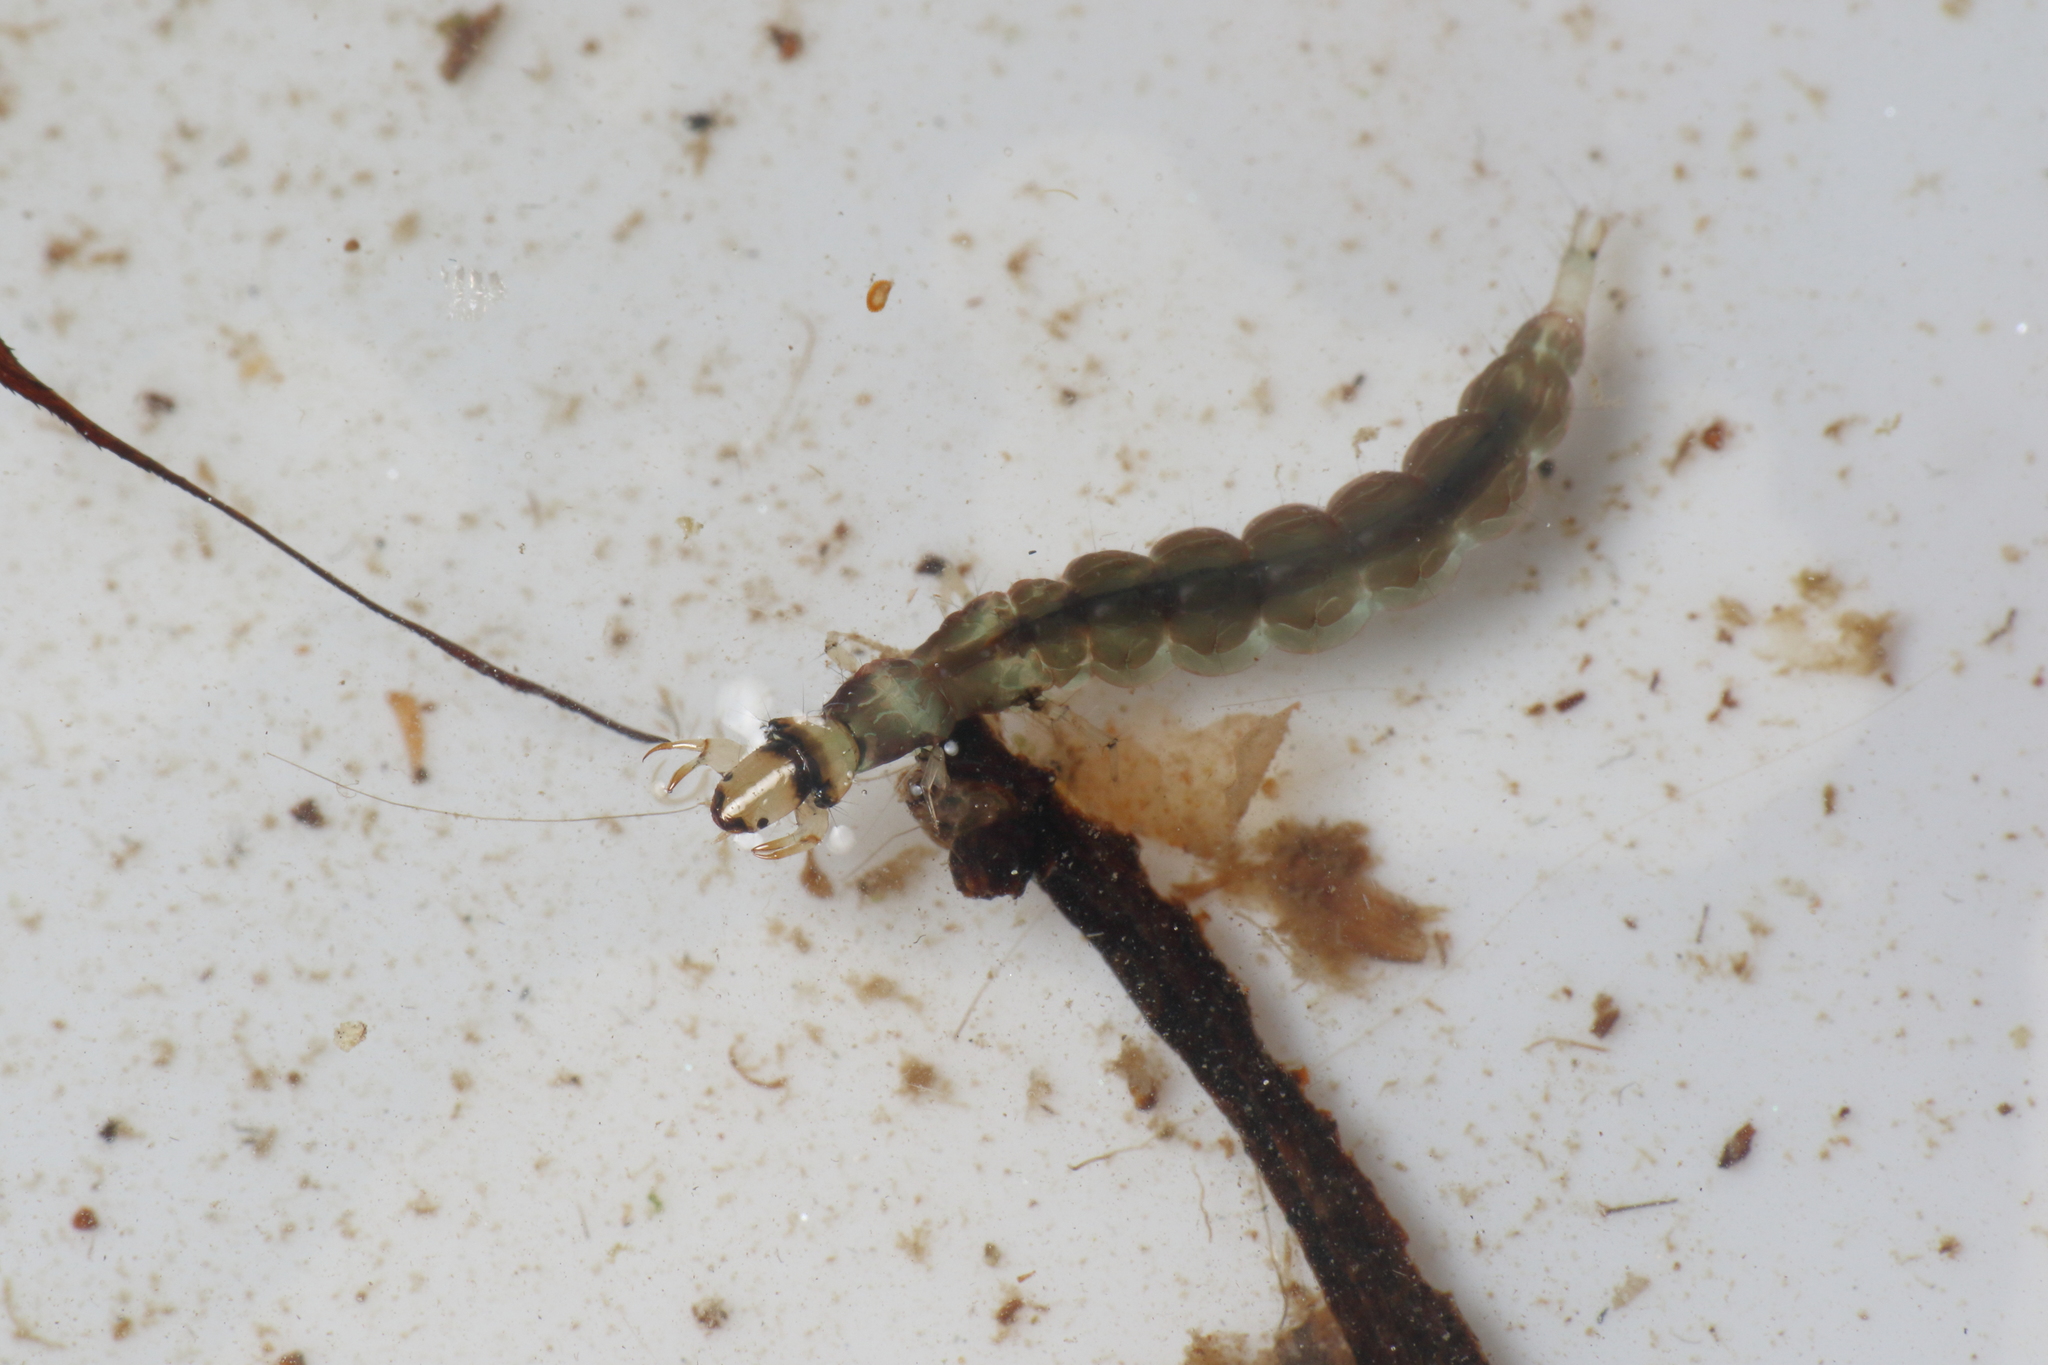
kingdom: Animalia
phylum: Arthropoda
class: Insecta
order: Trichoptera
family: Hydrobiosidae
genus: Hydrobiosis
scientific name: Hydrobiosis soror
